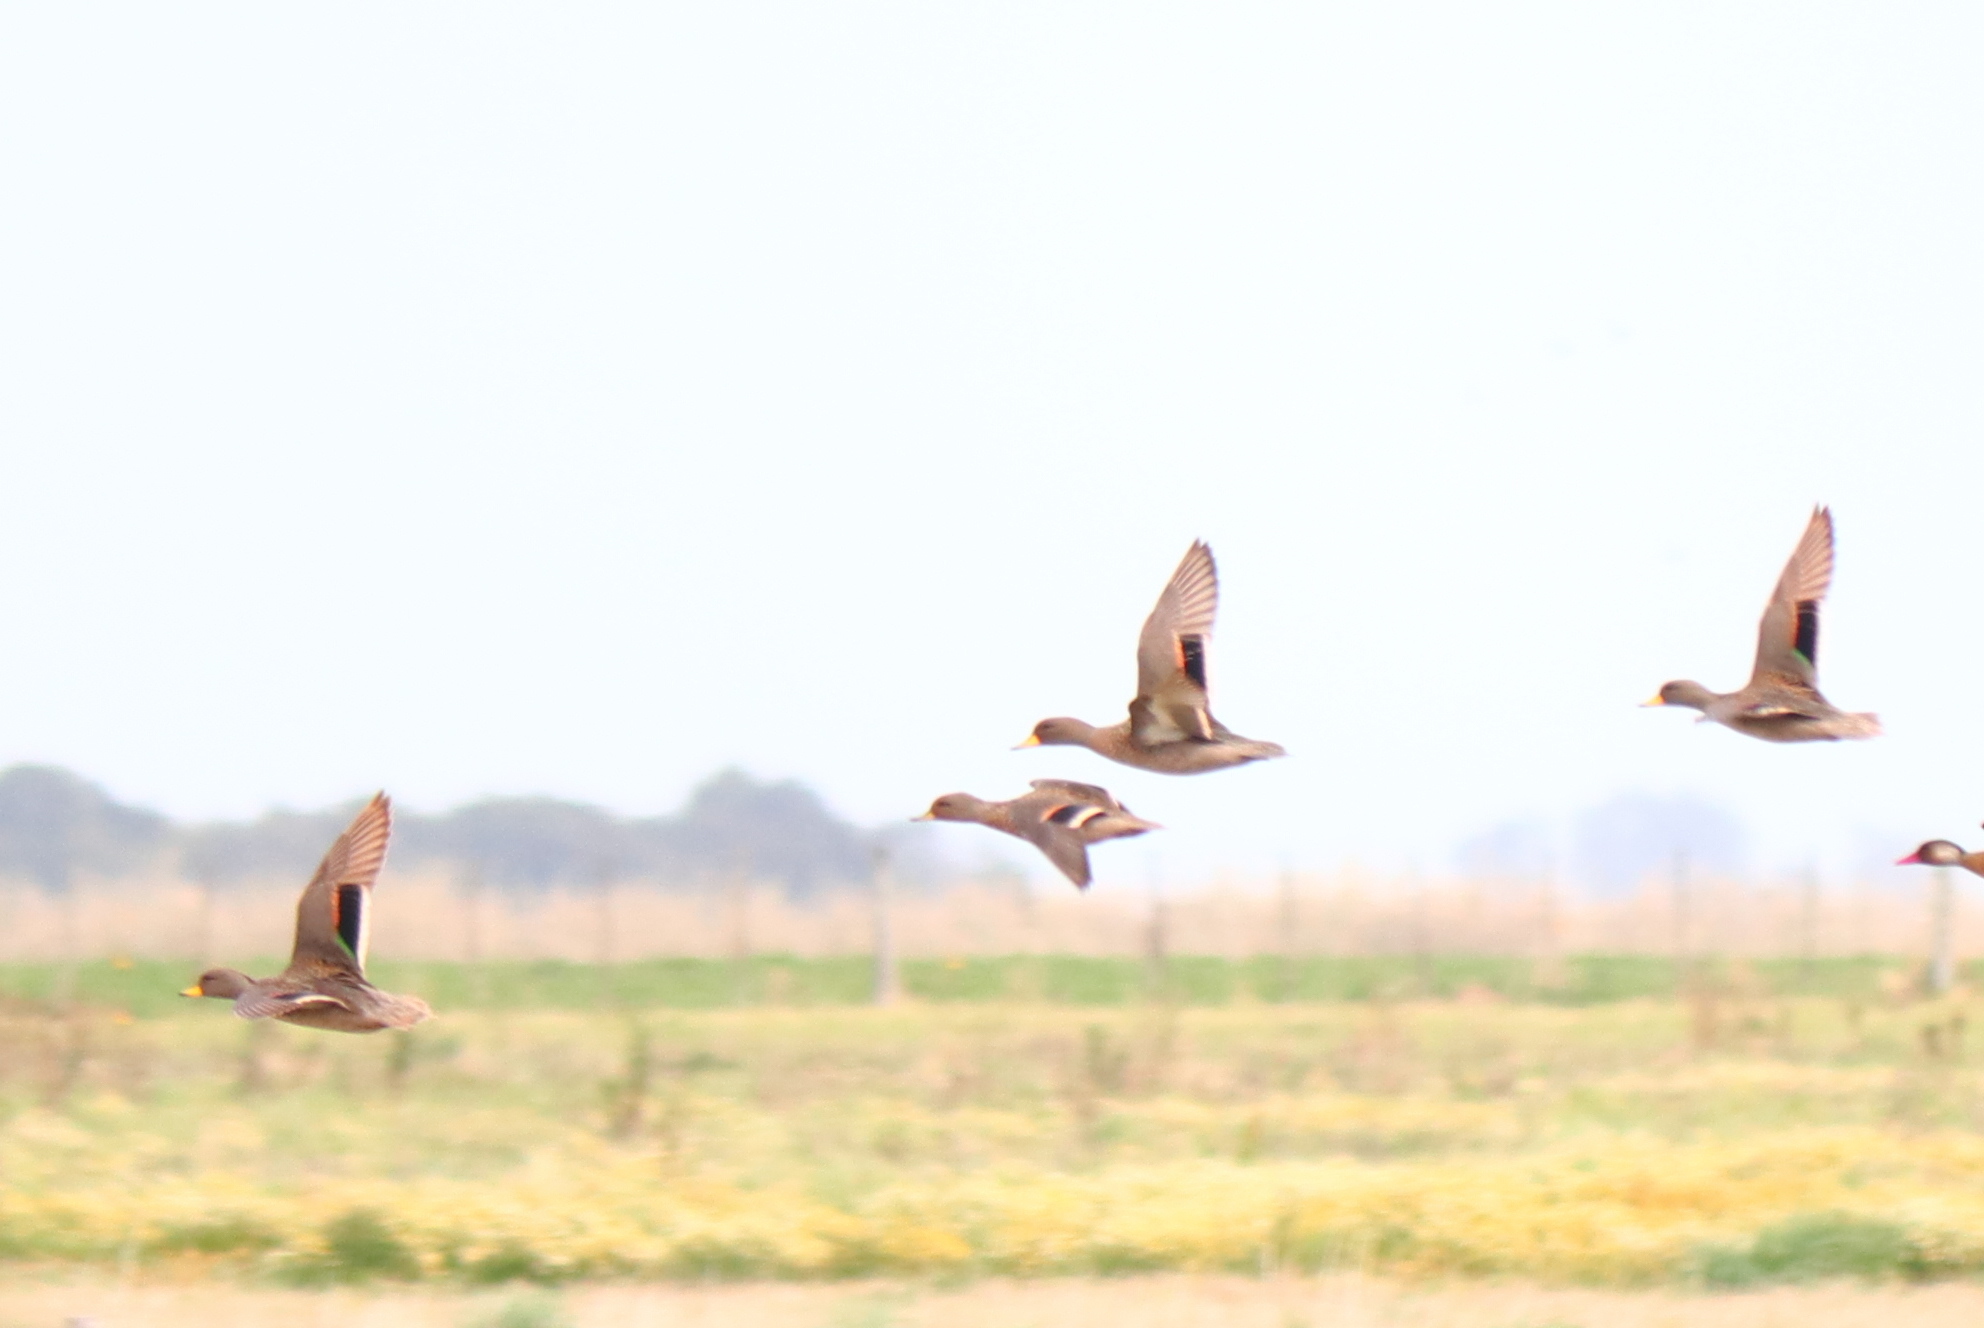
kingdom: Animalia
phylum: Chordata
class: Aves
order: Anseriformes
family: Anatidae
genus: Anas
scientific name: Anas flavirostris
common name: Yellow-billed teal
